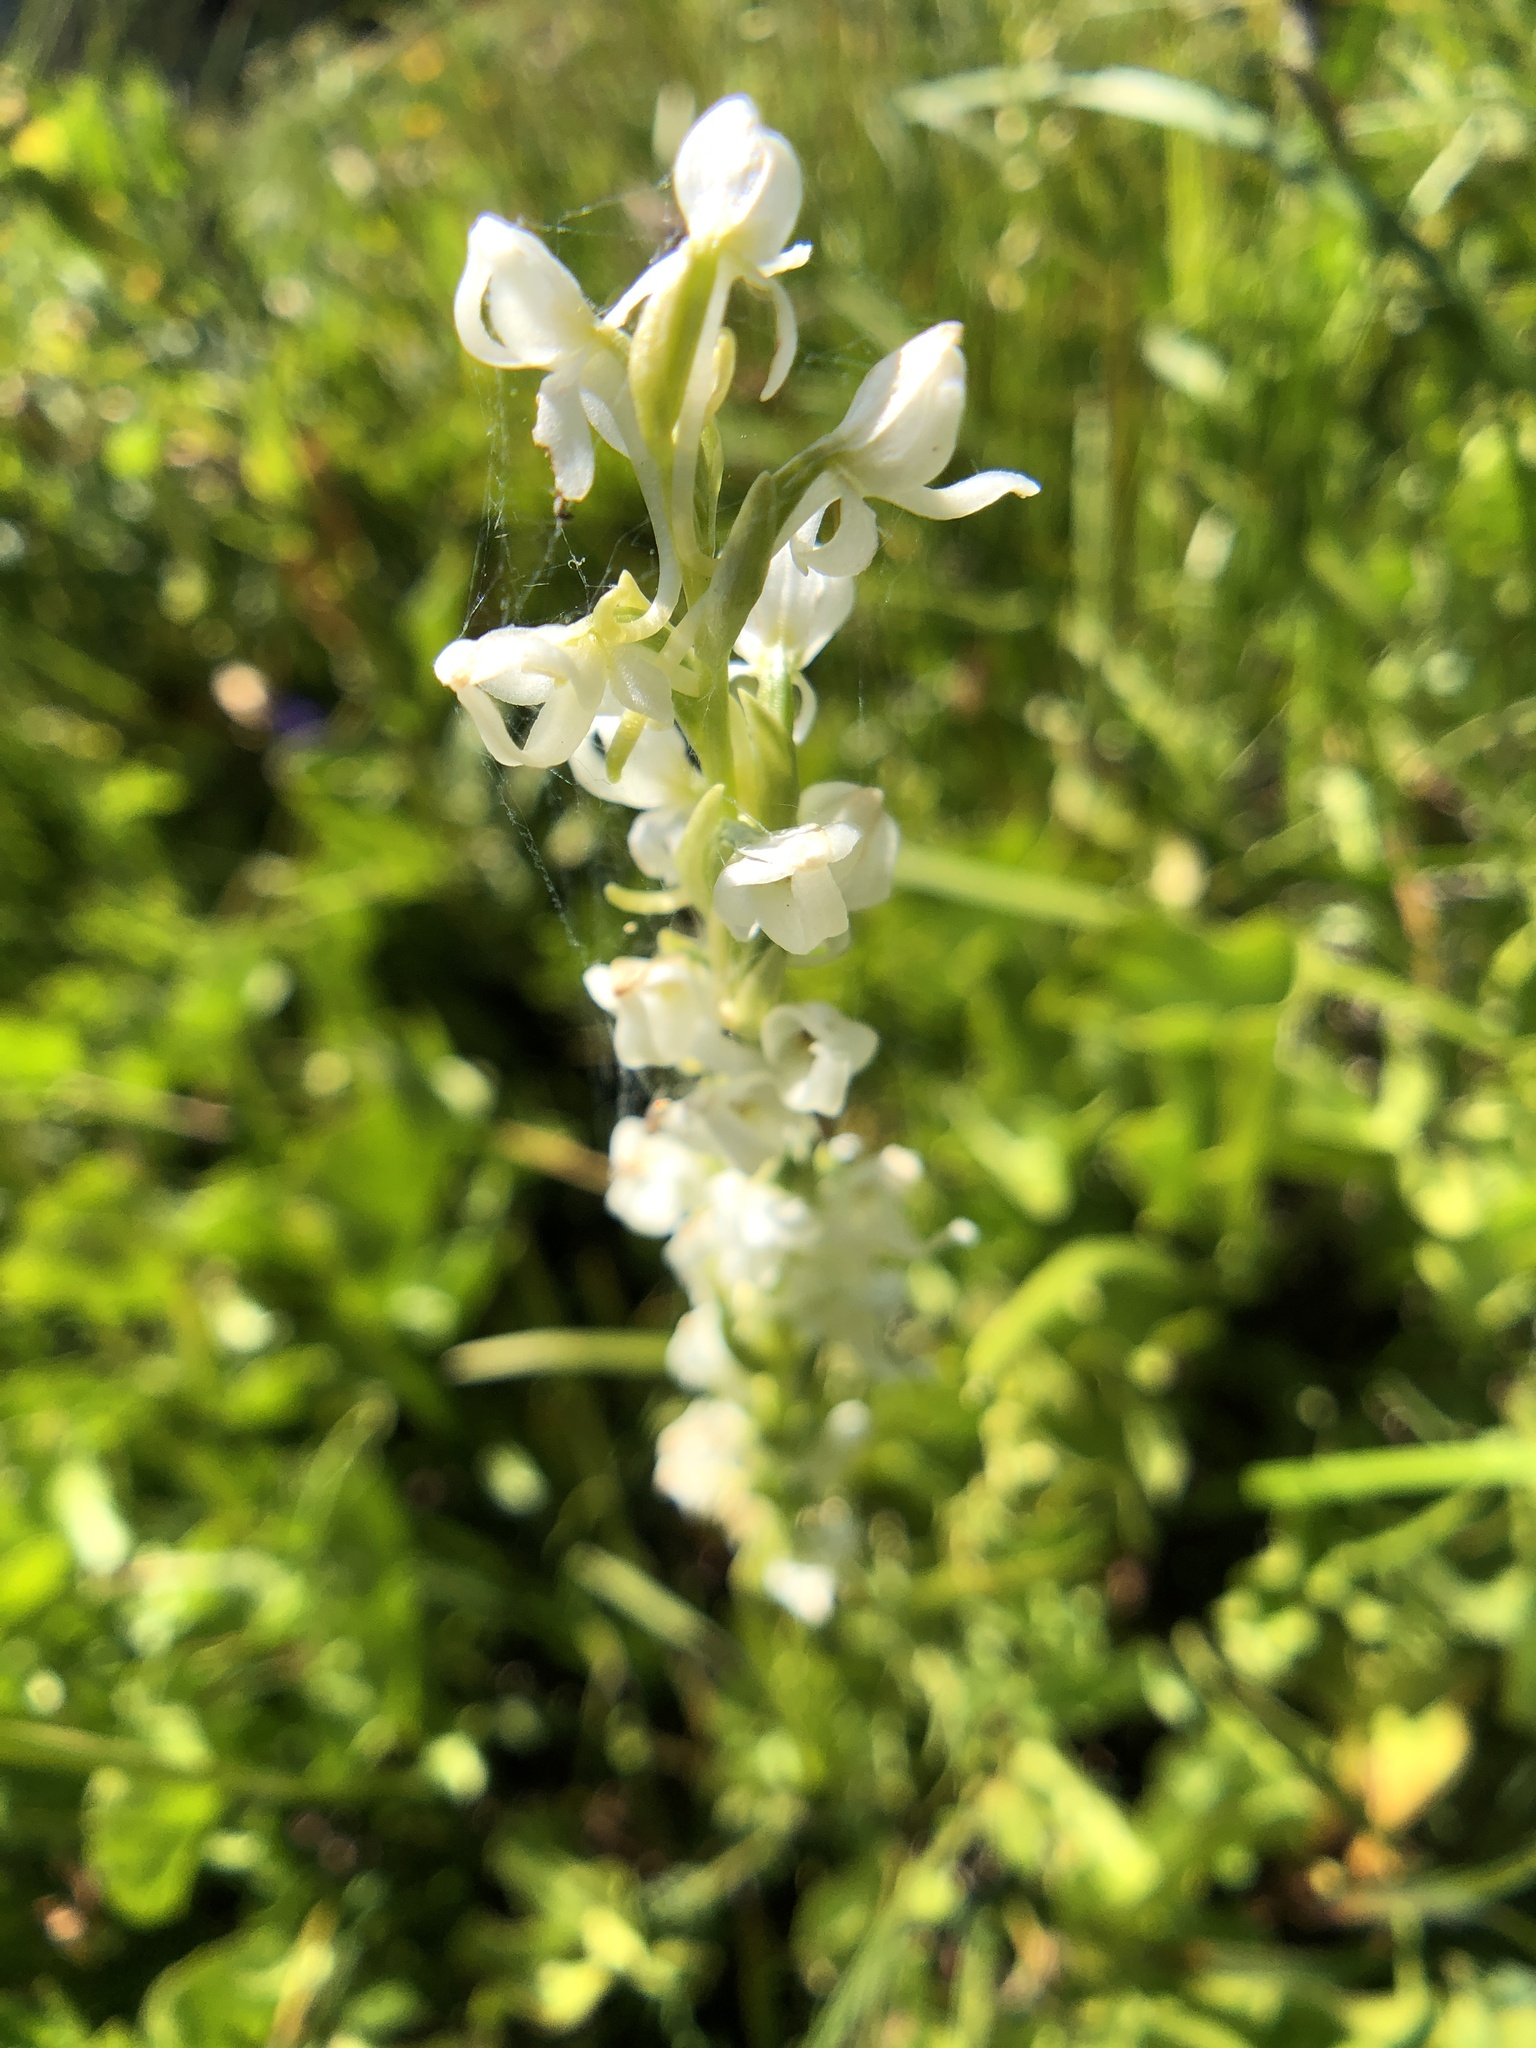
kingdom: Plantae
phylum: Tracheophyta
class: Liliopsida
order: Asparagales
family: Orchidaceae
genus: Platanthera
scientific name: Platanthera dilatata
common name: Bog candles
